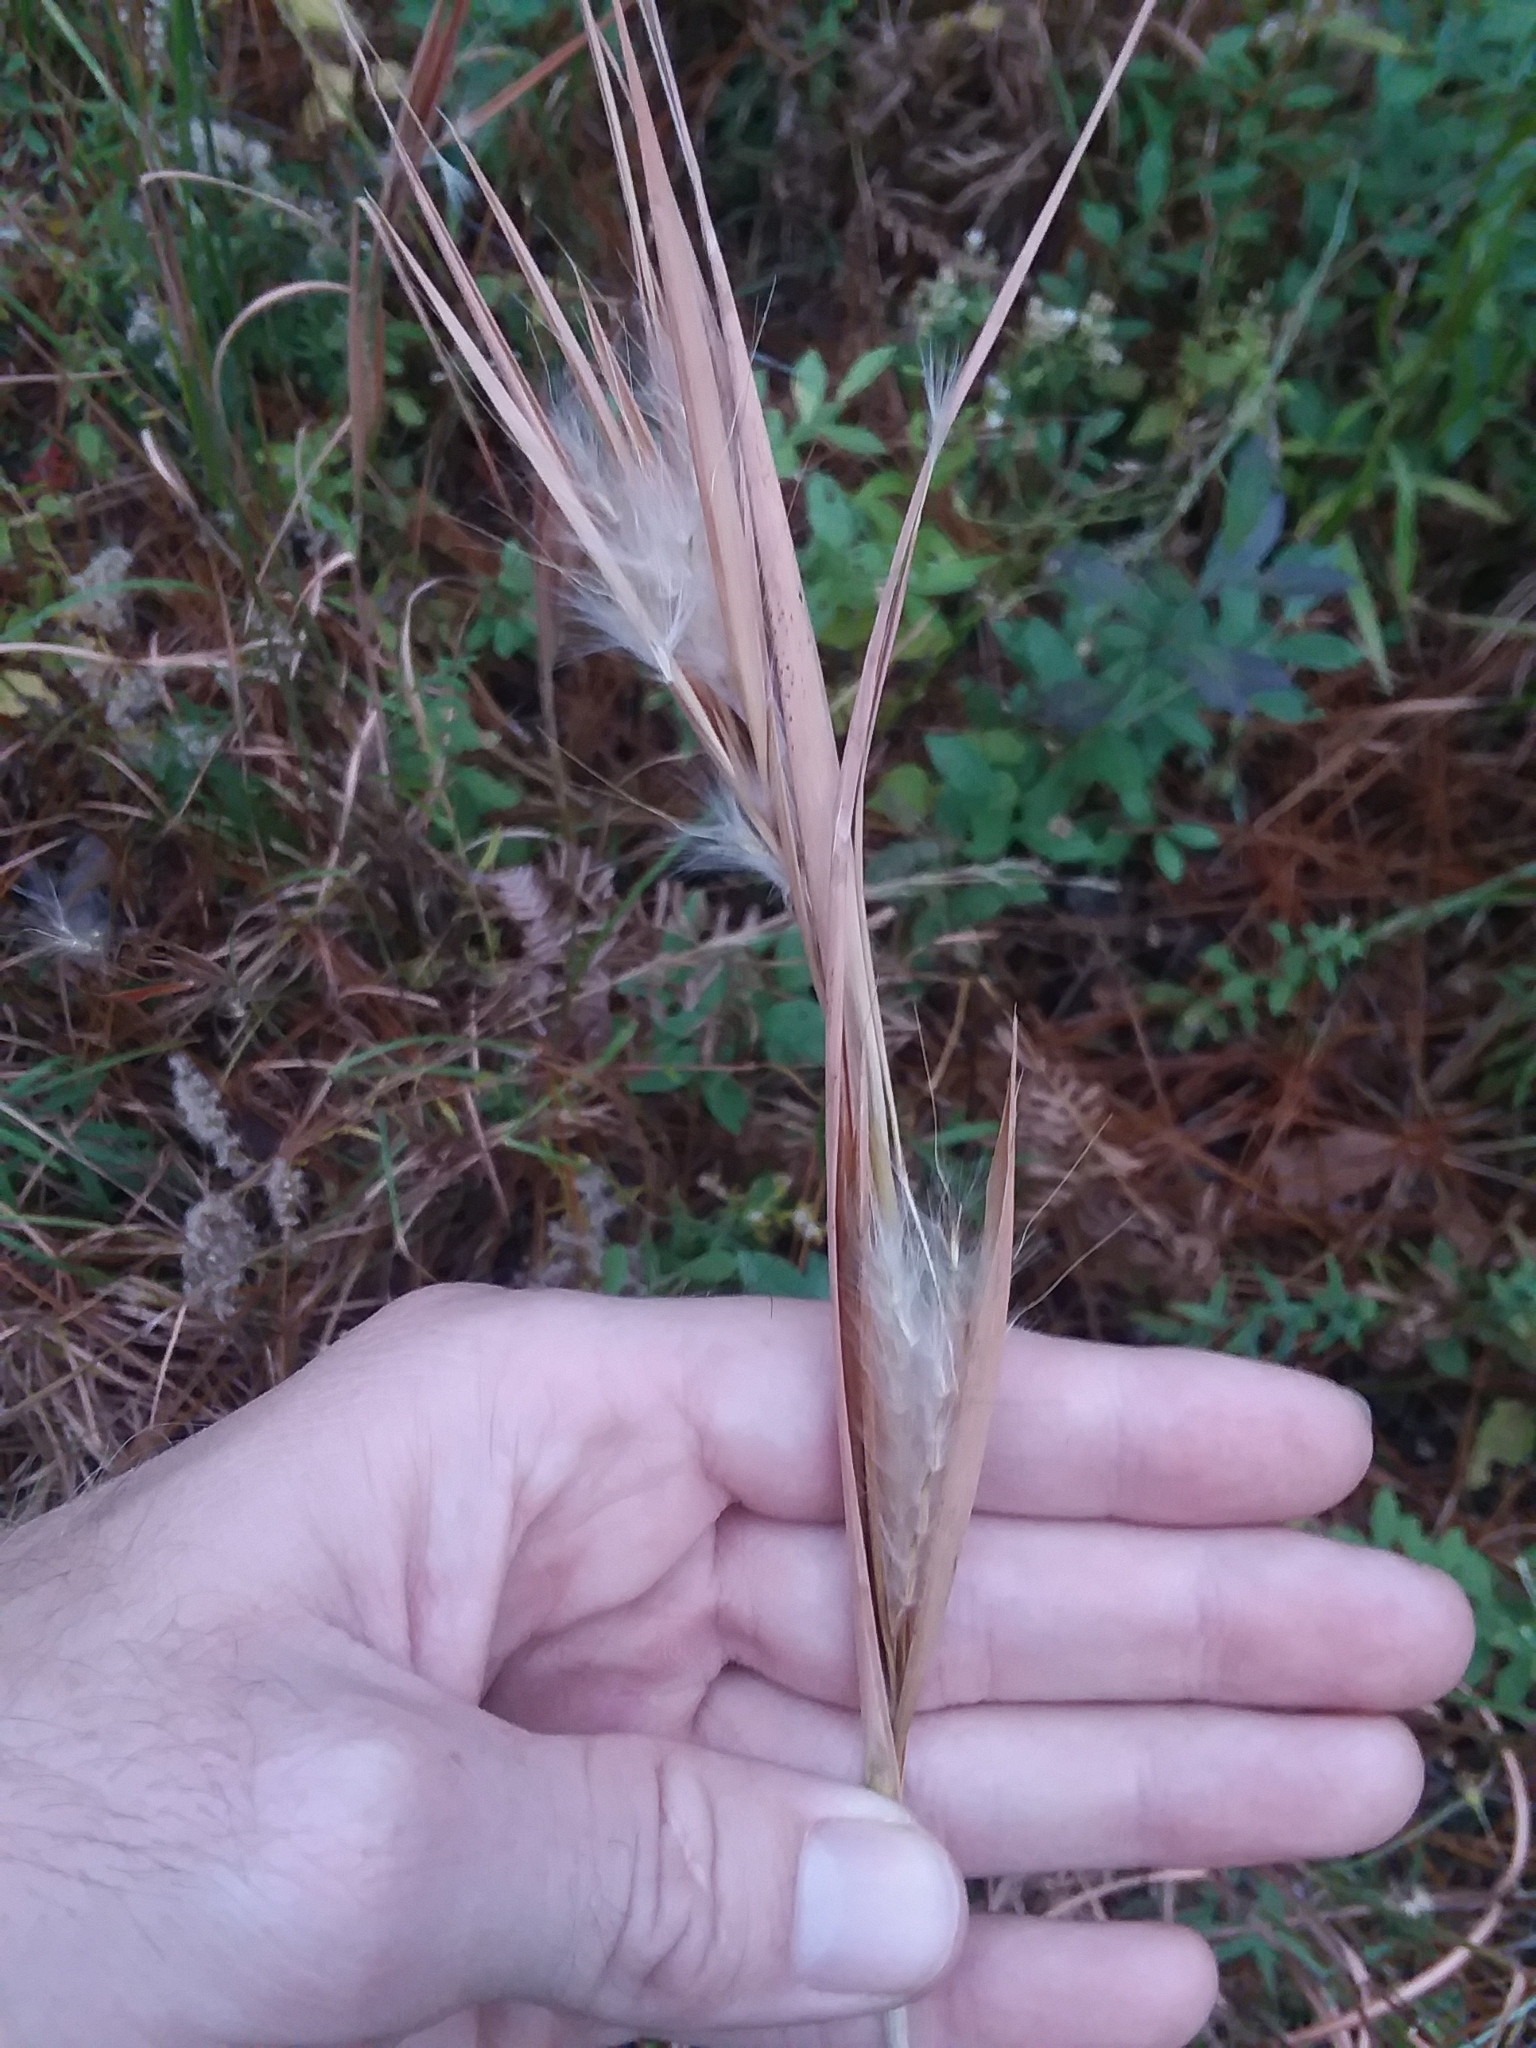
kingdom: Plantae
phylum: Tracheophyta
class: Liliopsida
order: Poales
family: Poaceae
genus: Andropogon
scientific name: Andropogon gyrans
